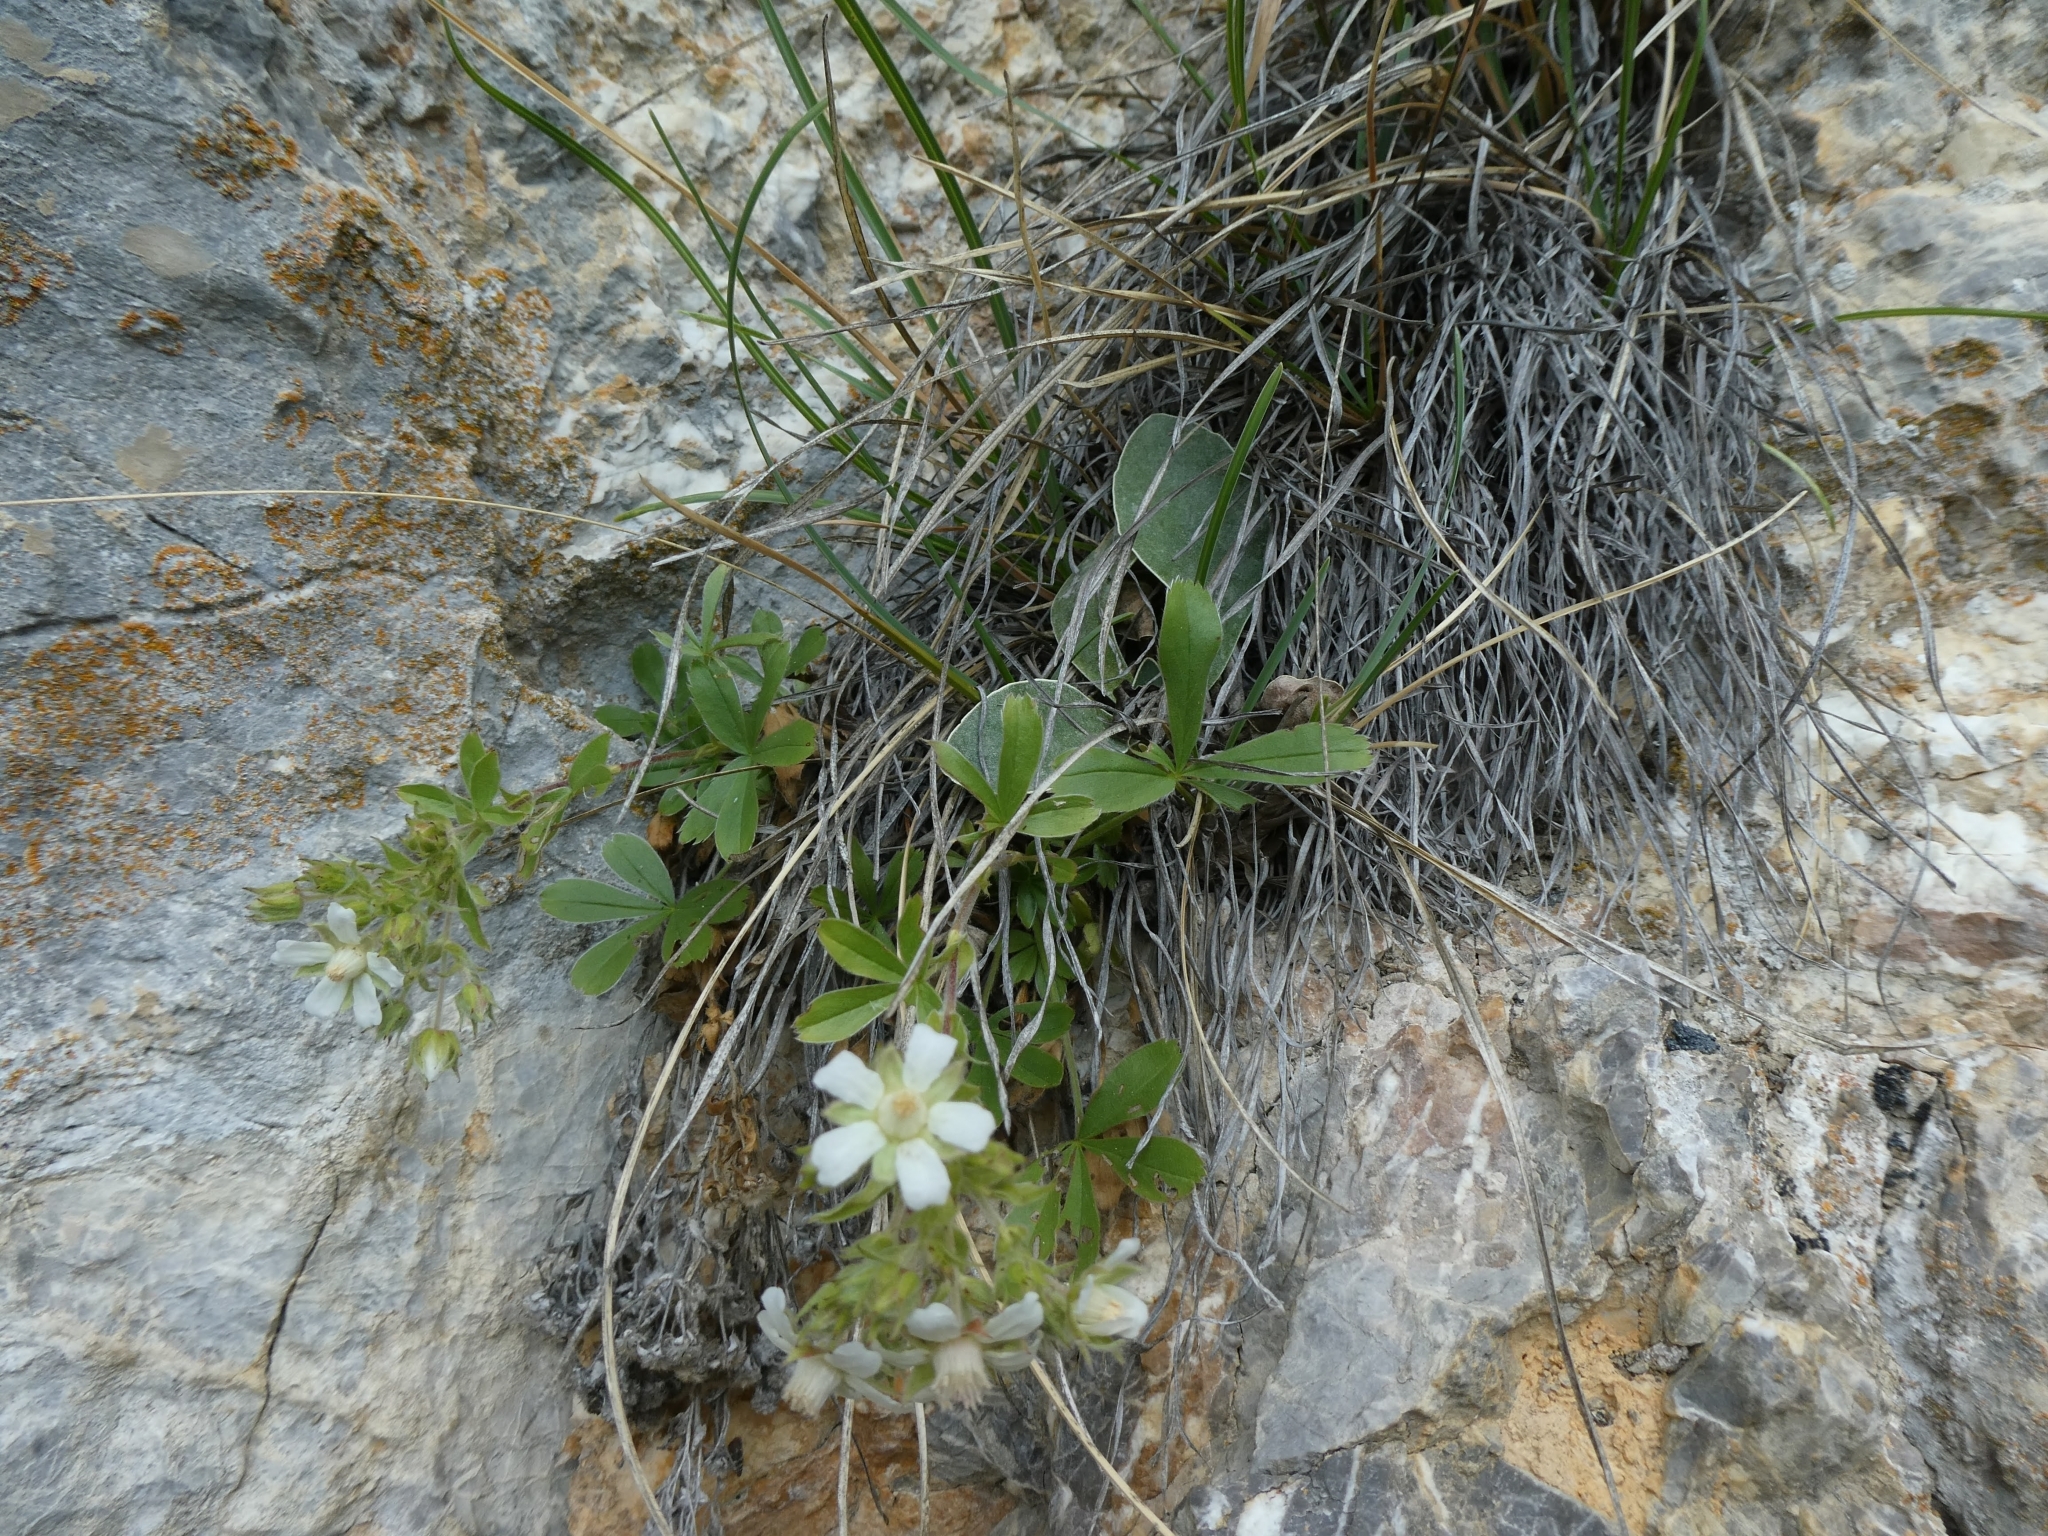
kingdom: Plantae
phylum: Tracheophyta
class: Magnoliopsida
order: Rosales
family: Rosaceae
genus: Potentilla
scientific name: Potentilla caulescens
